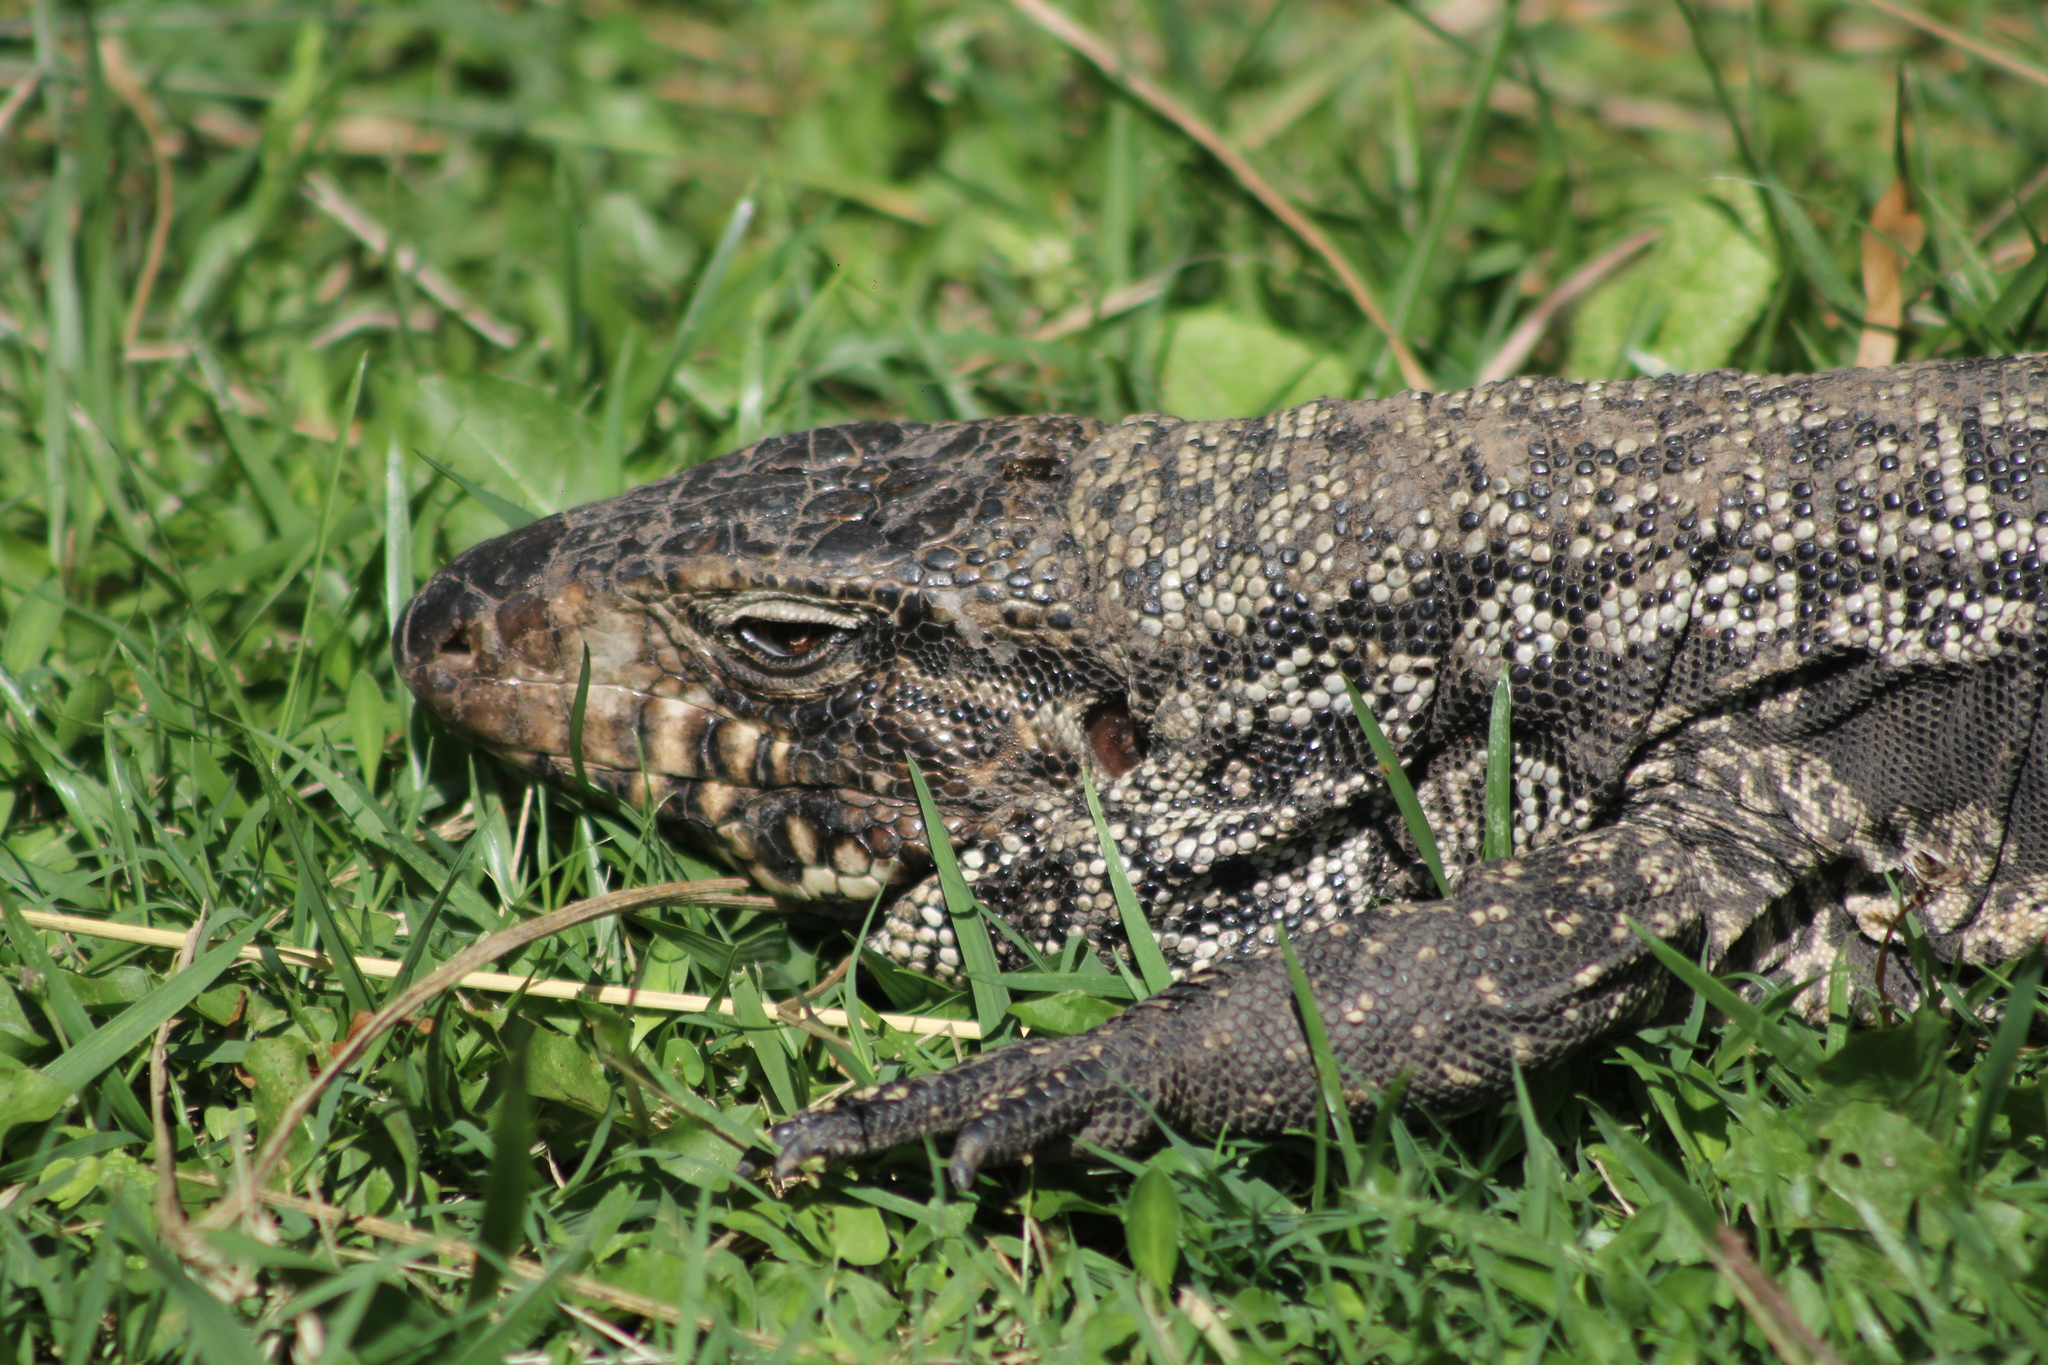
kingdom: Animalia
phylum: Chordata
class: Squamata
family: Teiidae
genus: Salvator
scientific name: Salvator merianae
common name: Argentine black and white tegu
